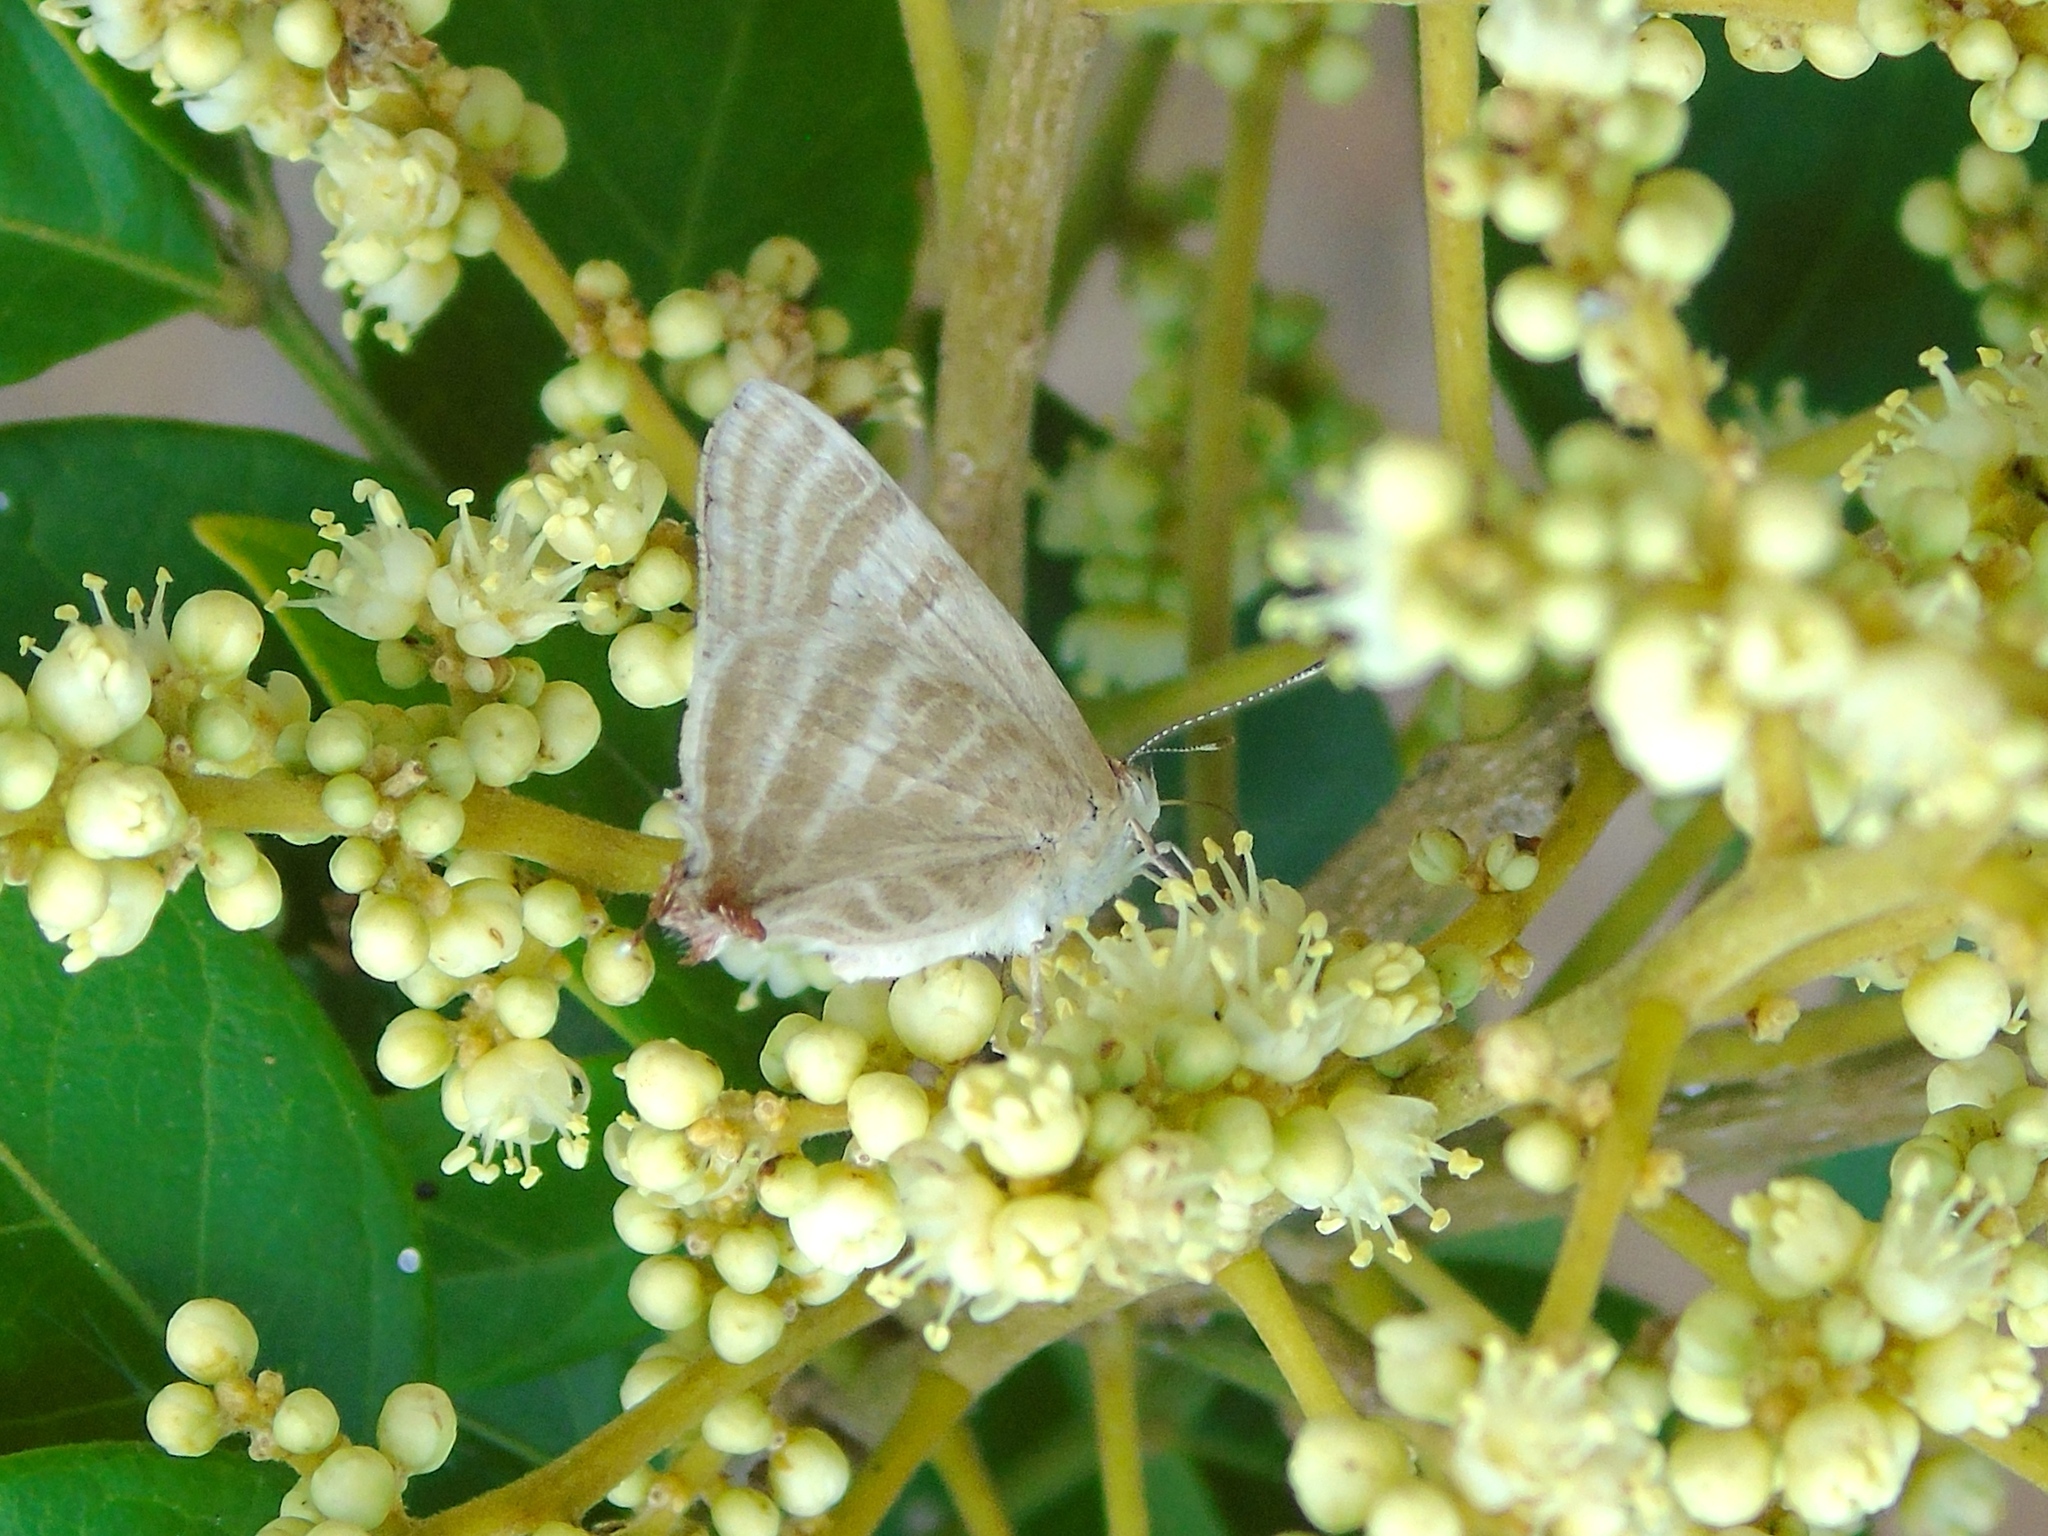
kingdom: Animalia
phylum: Arthropoda
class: Insecta
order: Lepidoptera
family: Lycaenidae
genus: Dolymorpha
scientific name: Dolymorpha jada
